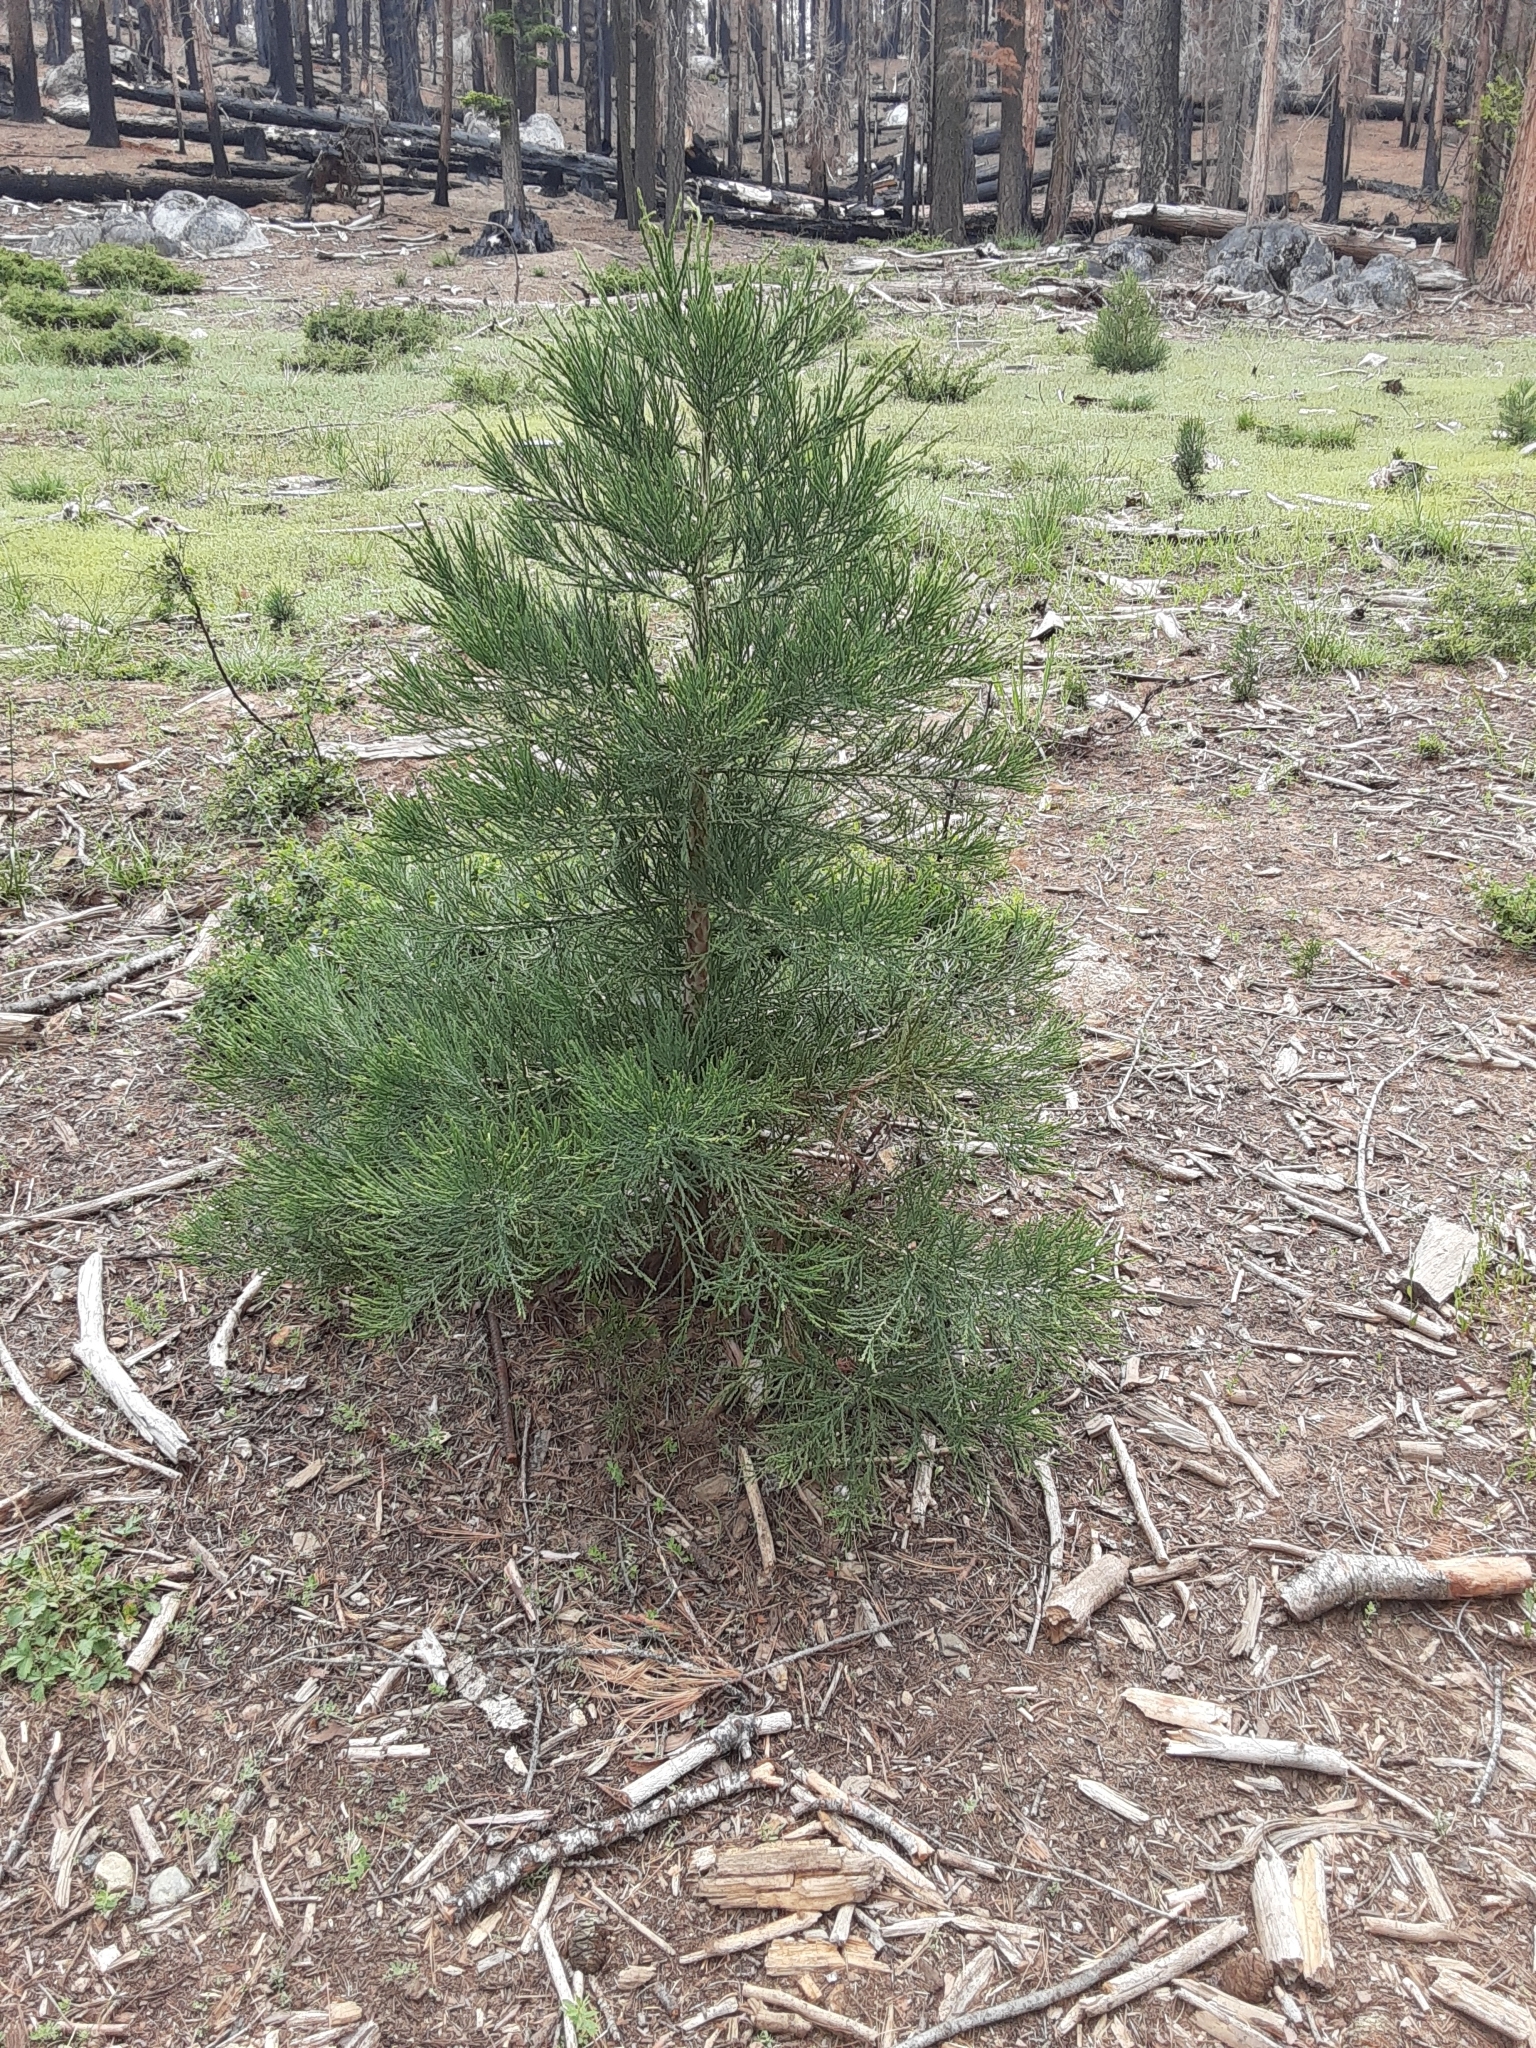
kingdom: Plantae
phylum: Tracheophyta
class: Pinopsida
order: Pinales
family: Cupressaceae
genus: Sequoiadendron
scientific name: Sequoiadendron giganteum
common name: Wellingtonia
